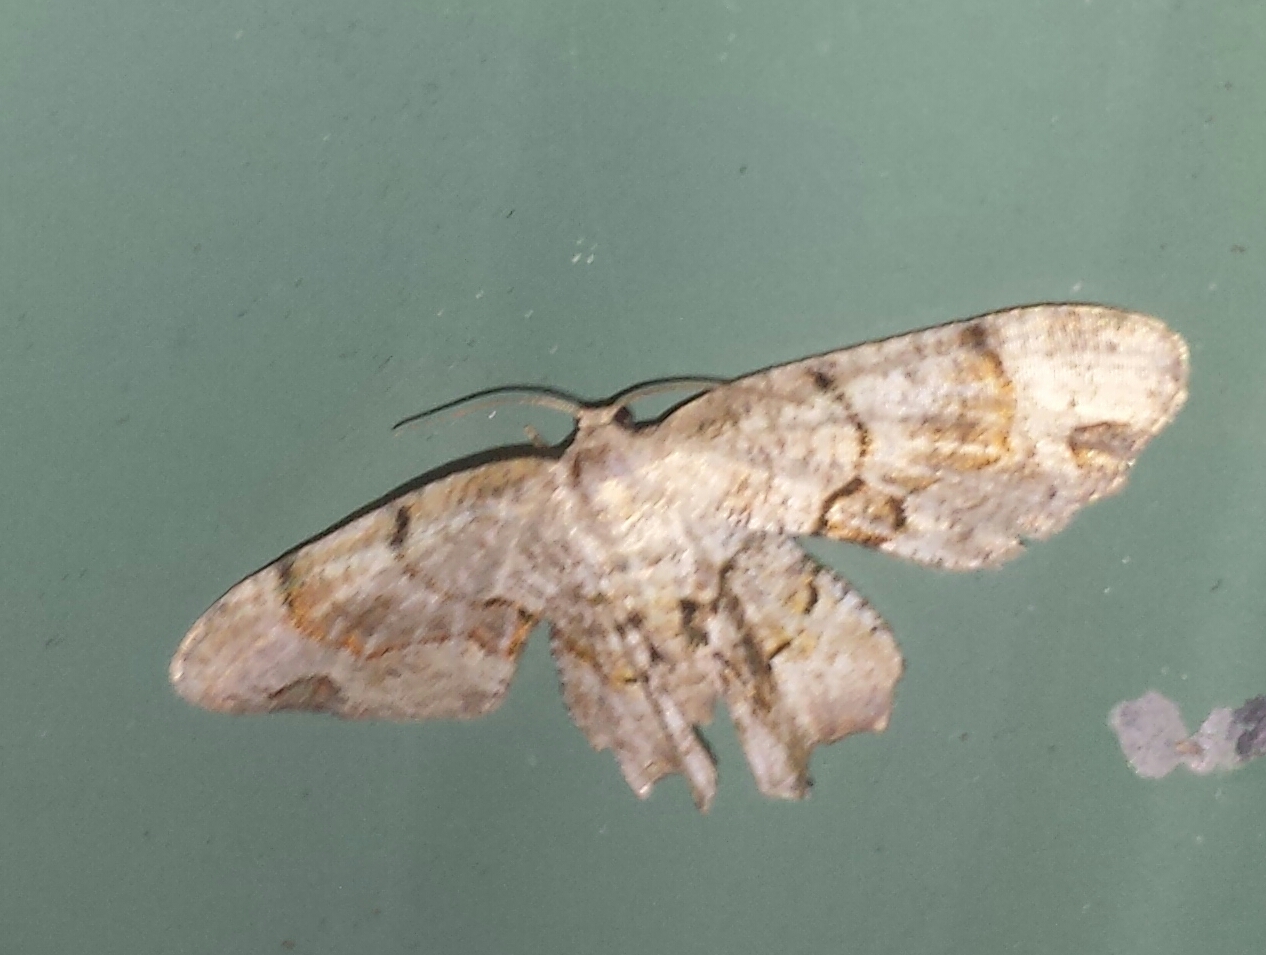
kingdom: Animalia
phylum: Arthropoda
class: Insecta
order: Lepidoptera
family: Uraniidae
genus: Epiplema
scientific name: Epiplema Callizzia amorata
